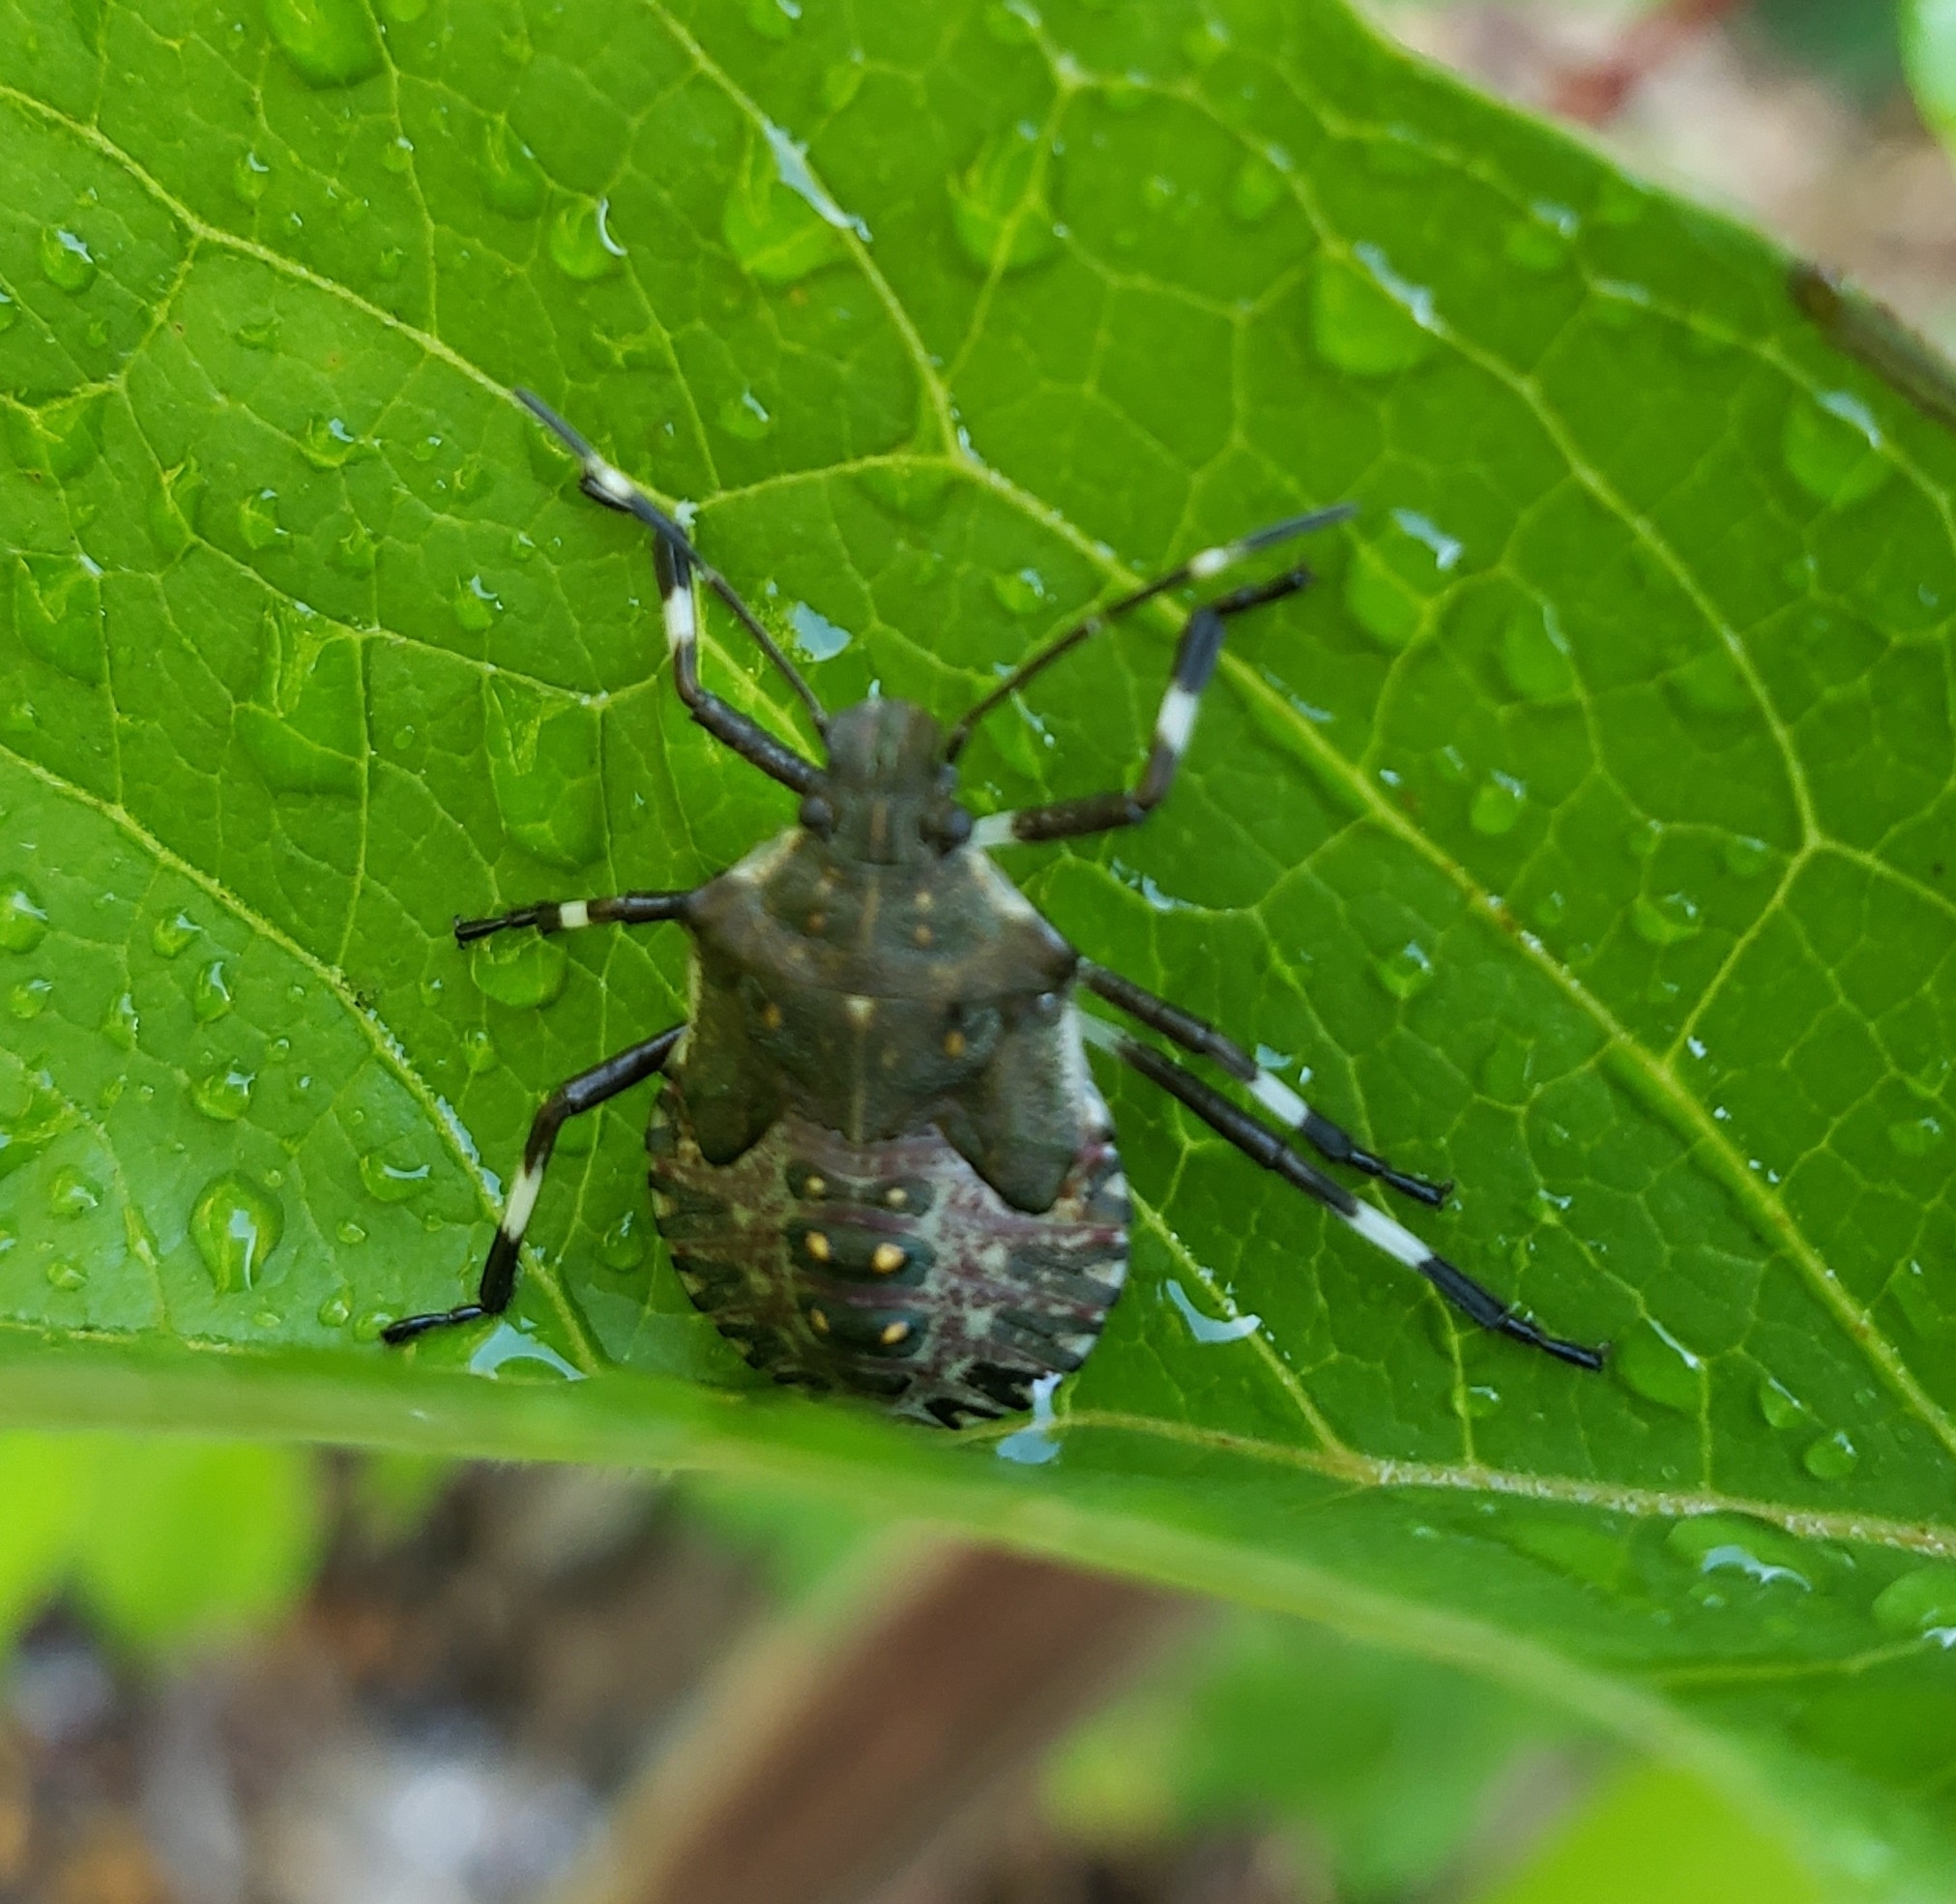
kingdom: Animalia
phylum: Arthropoda
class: Insecta
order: Hemiptera
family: Pentatomidae
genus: Halyomorpha
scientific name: Halyomorpha halys
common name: Brown marmorated stink bug
